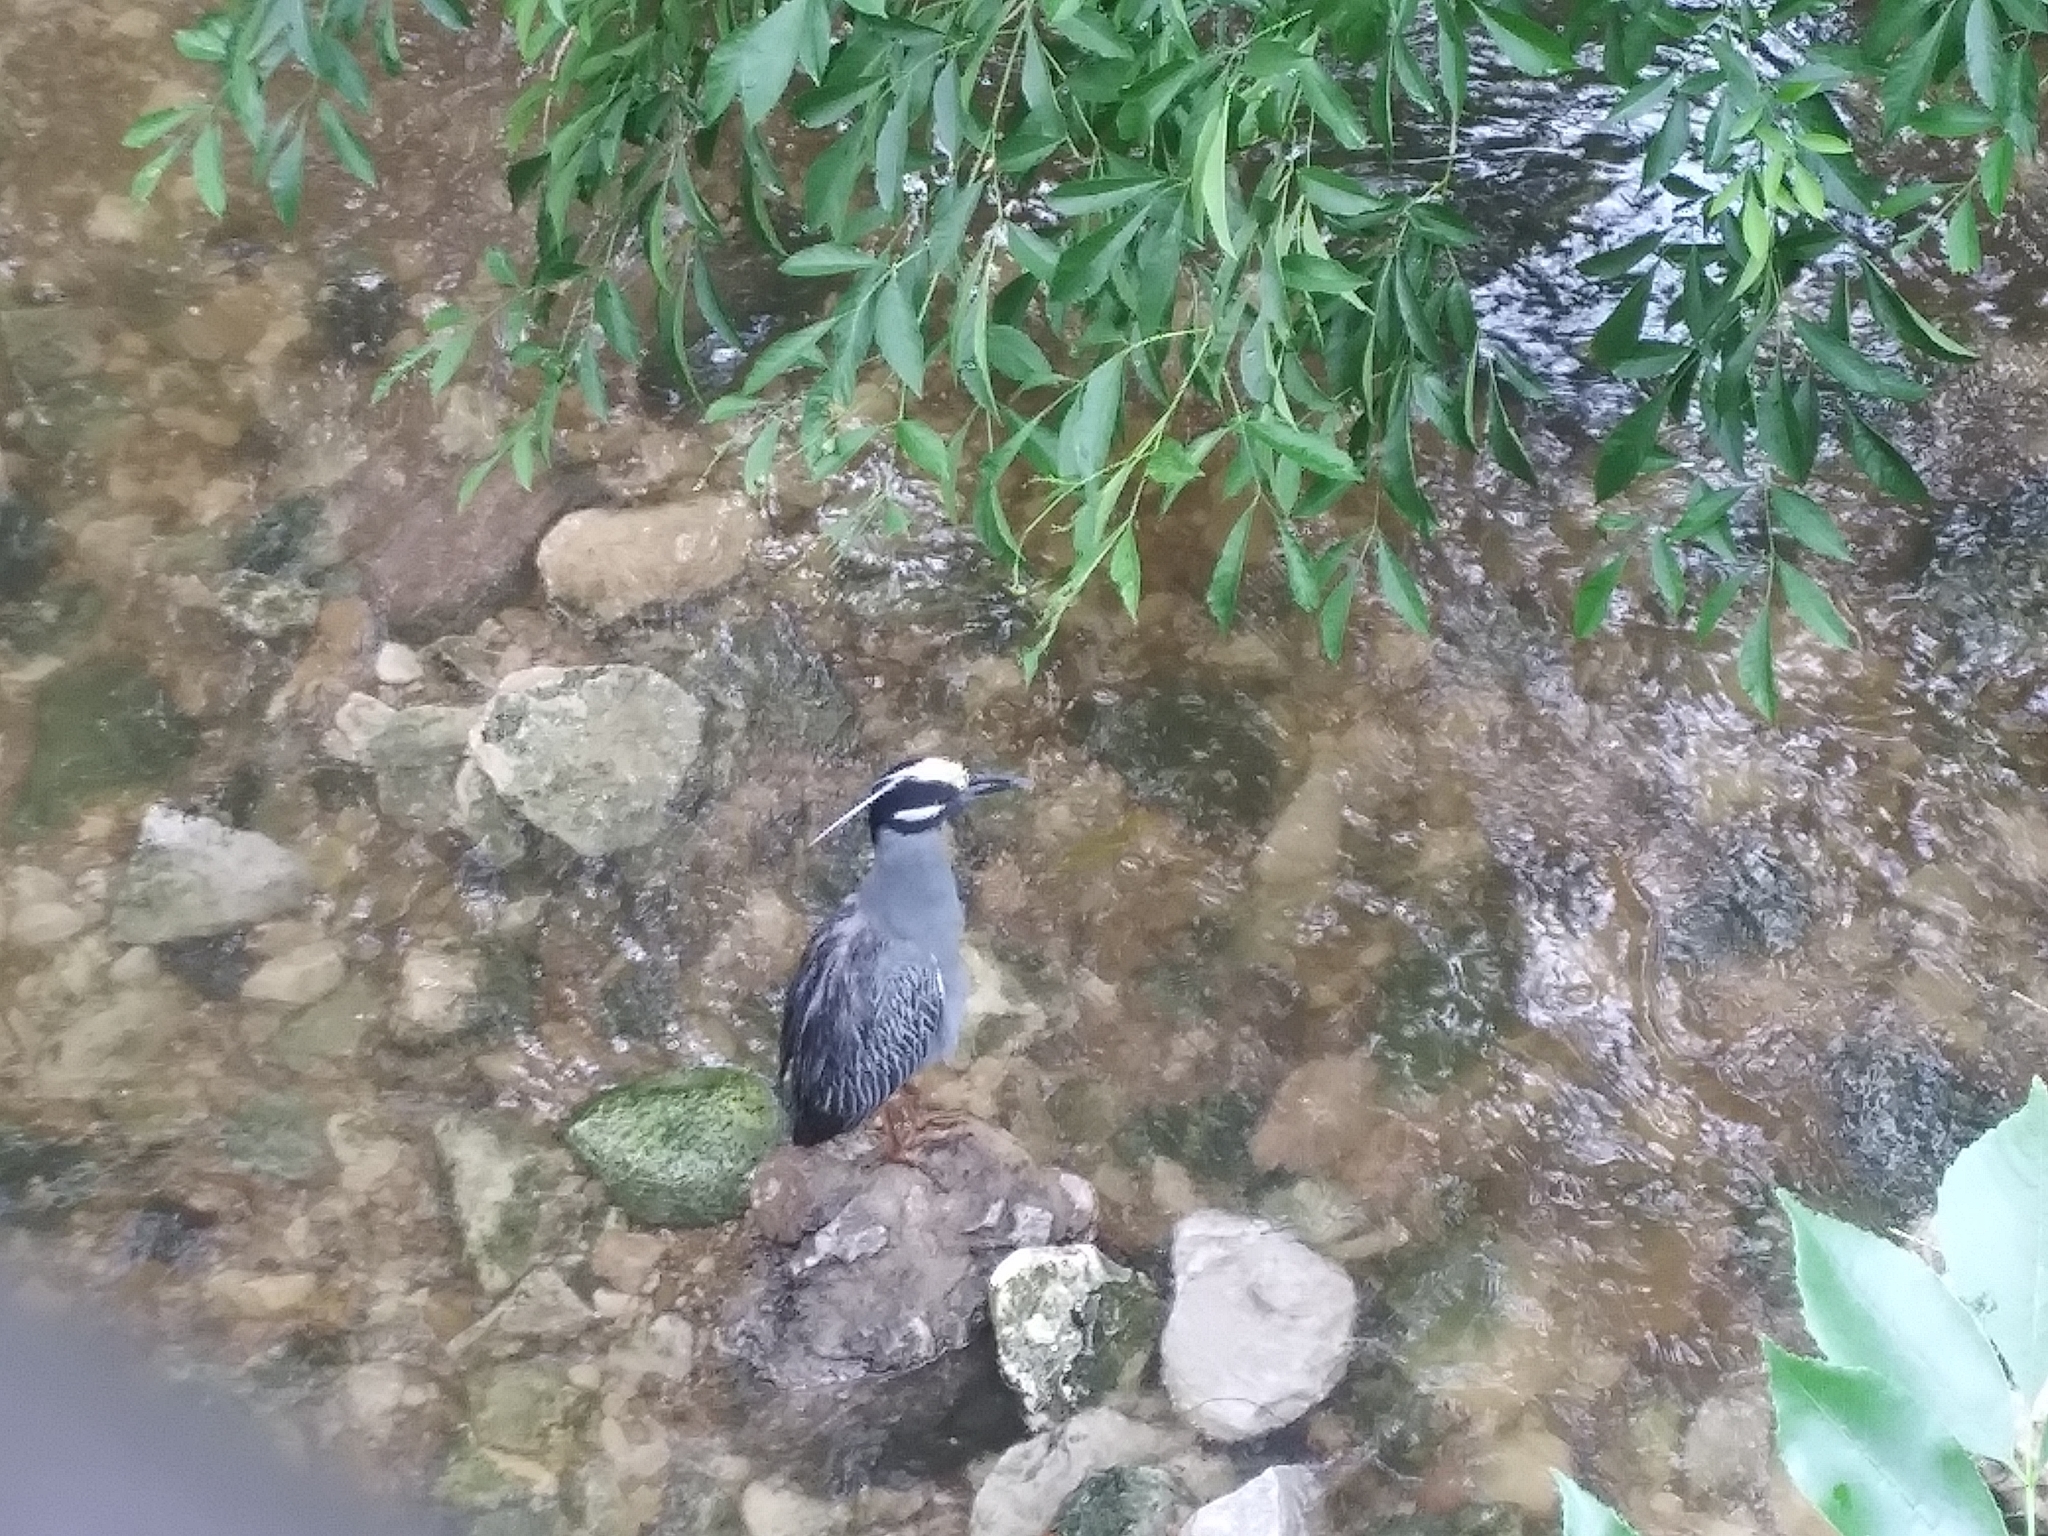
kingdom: Animalia
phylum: Chordata
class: Aves
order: Pelecaniformes
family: Ardeidae
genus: Nyctanassa
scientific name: Nyctanassa violacea
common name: Yellow-crowned night heron
